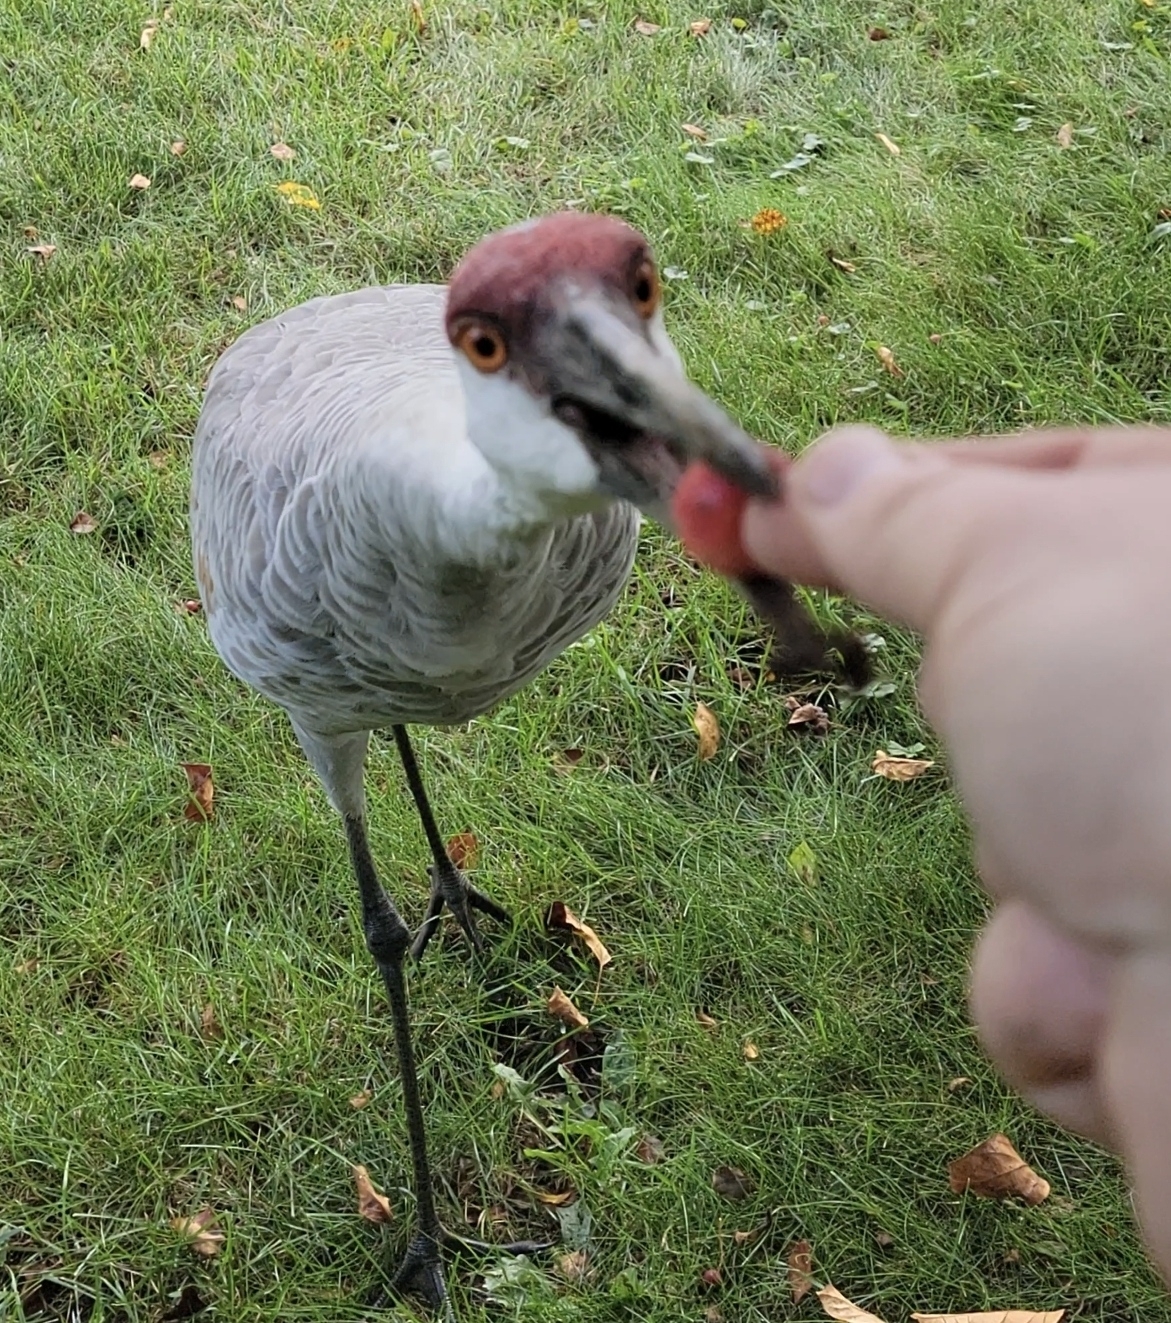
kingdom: Animalia
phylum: Chordata
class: Aves
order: Gruiformes
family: Gruidae
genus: Grus
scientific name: Grus canadensis
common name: Sandhill crane
